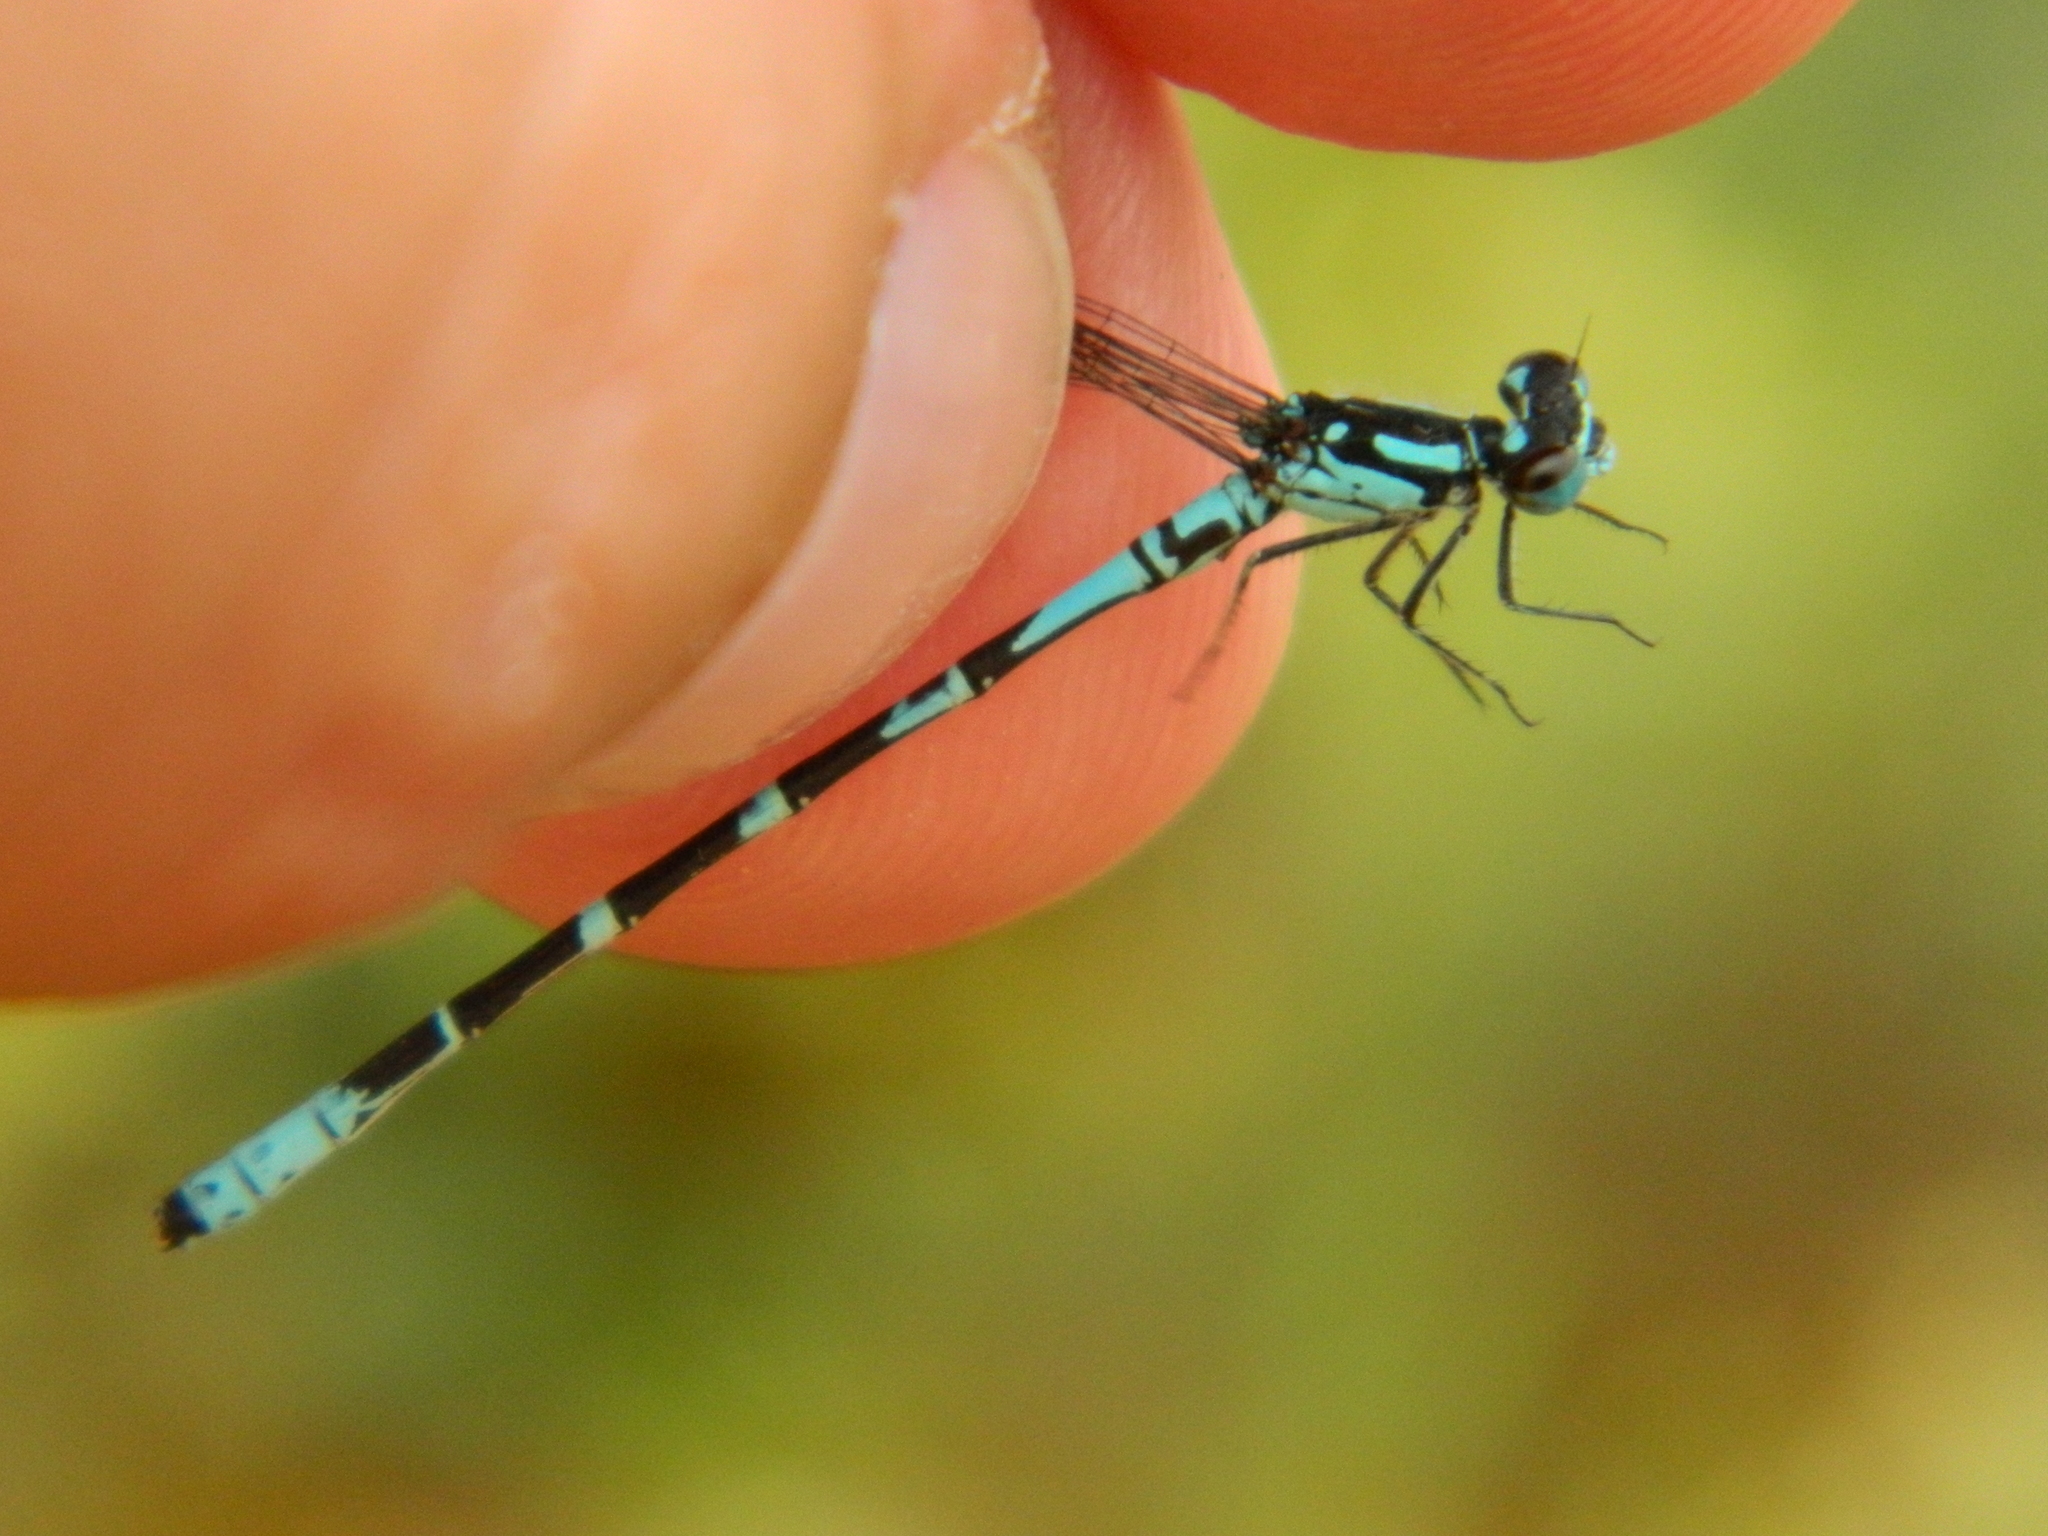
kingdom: Animalia
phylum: Arthropoda
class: Insecta
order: Odonata
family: Coenagrionidae
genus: Coenagrion
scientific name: Coenagrion interrogatum
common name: Subarctic bluet
